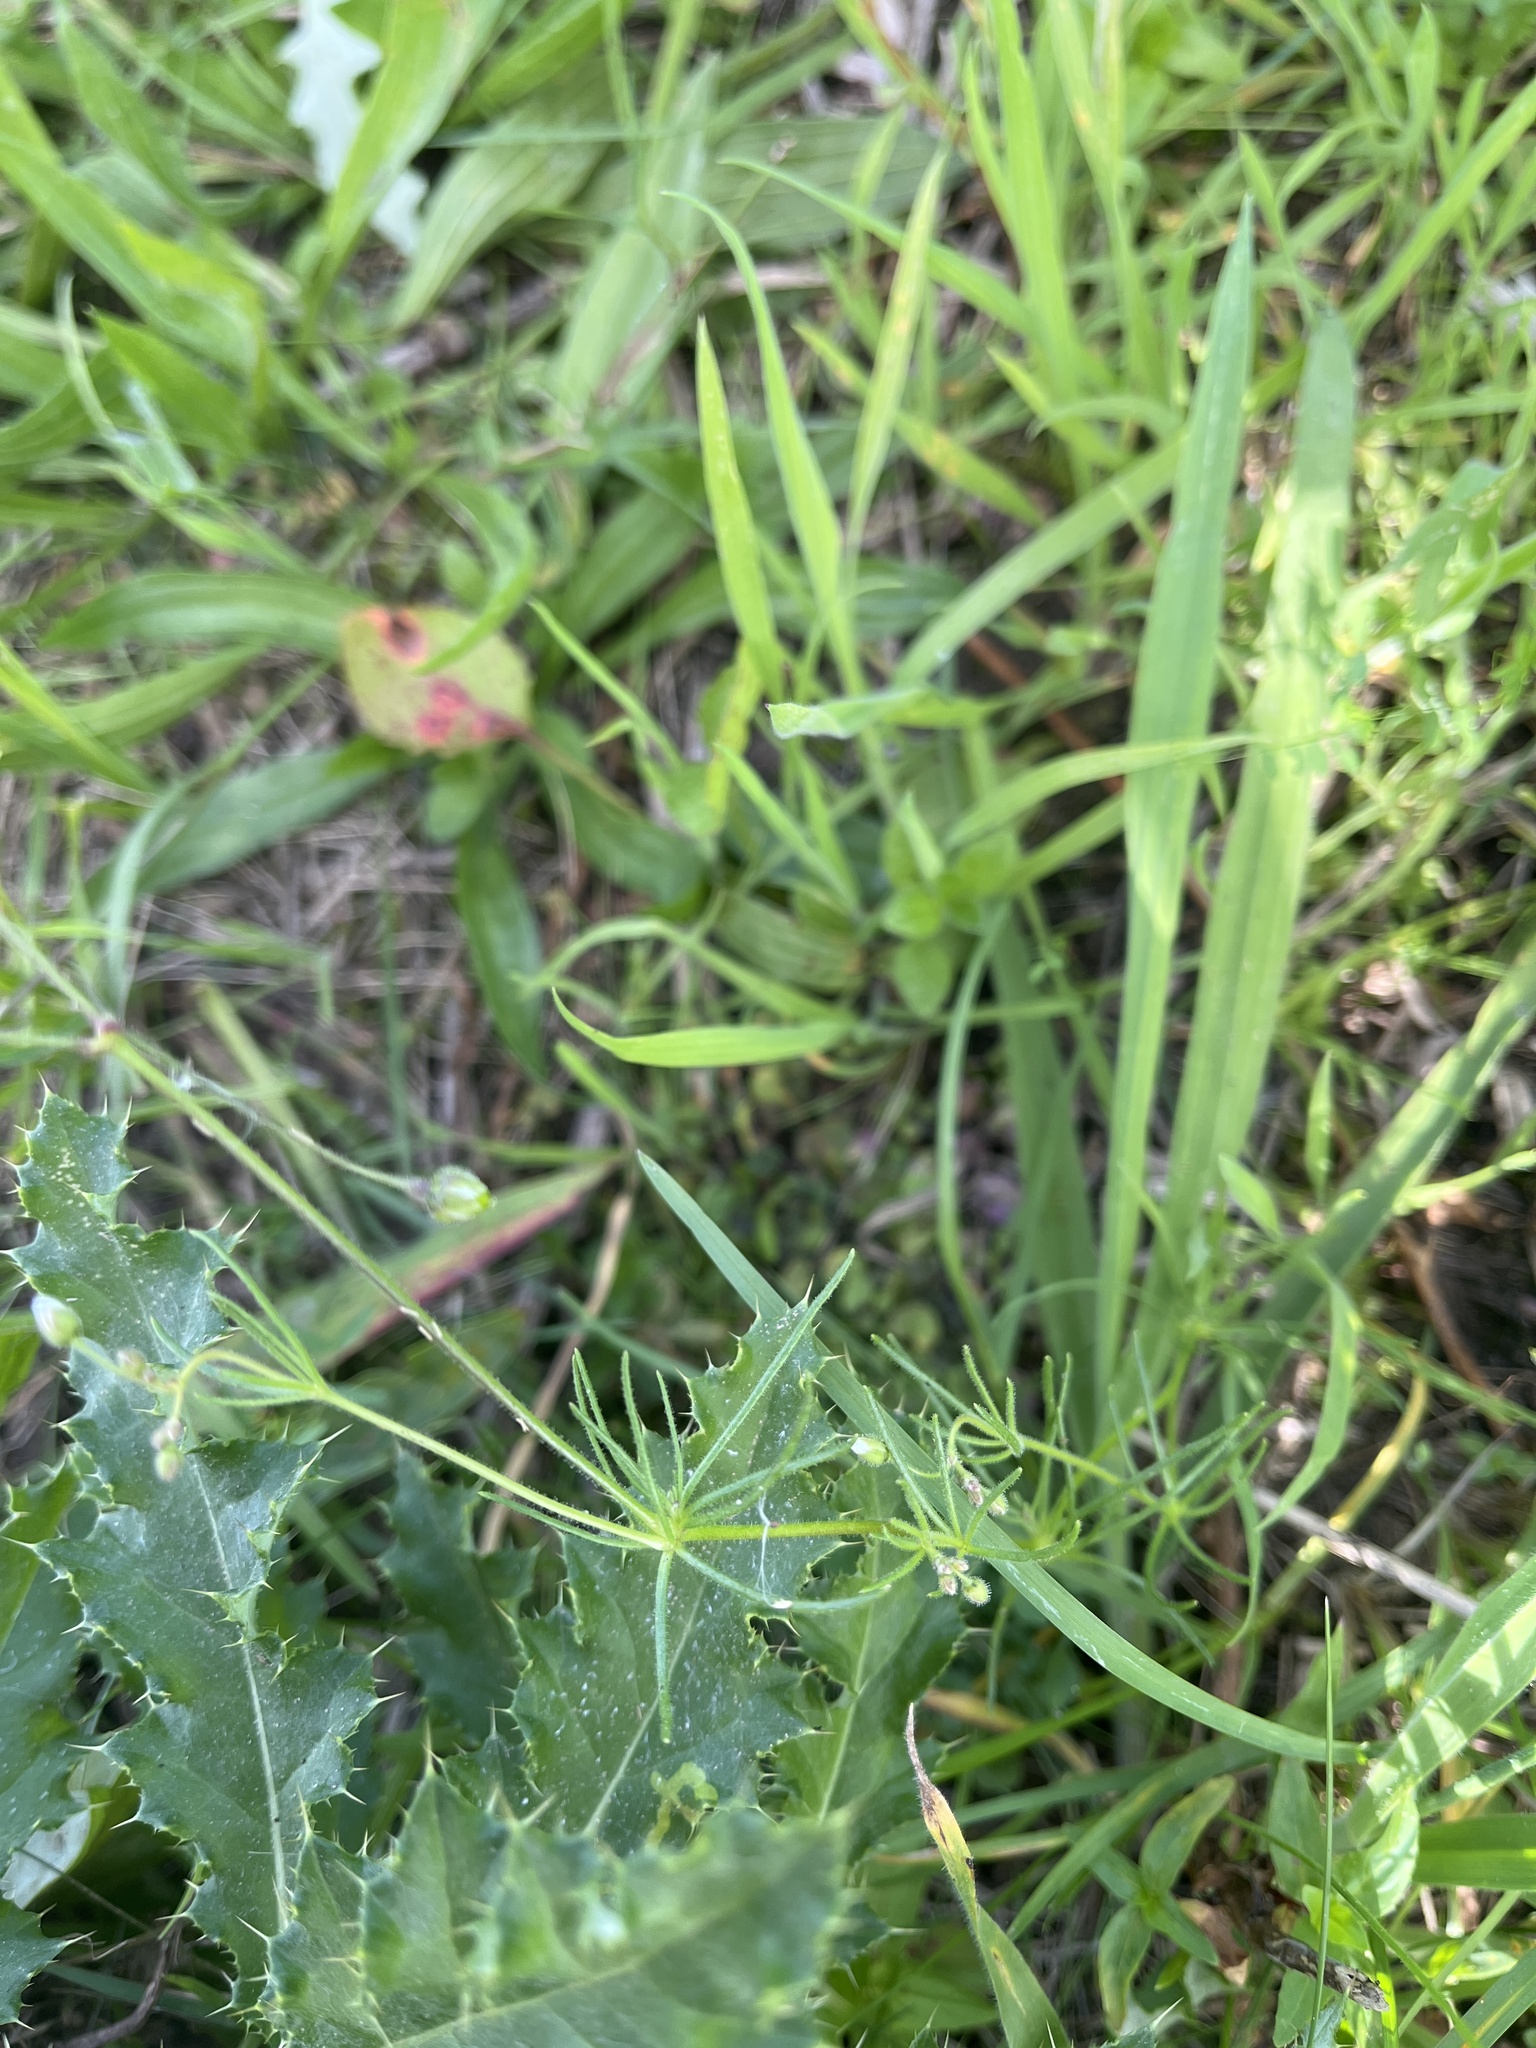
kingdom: Plantae
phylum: Tracheophyta
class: Magnoliopsida
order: Caryophyllales
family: Caryophyllaceae
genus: Spergula
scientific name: Spergula arvensis
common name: Corn spurrey
